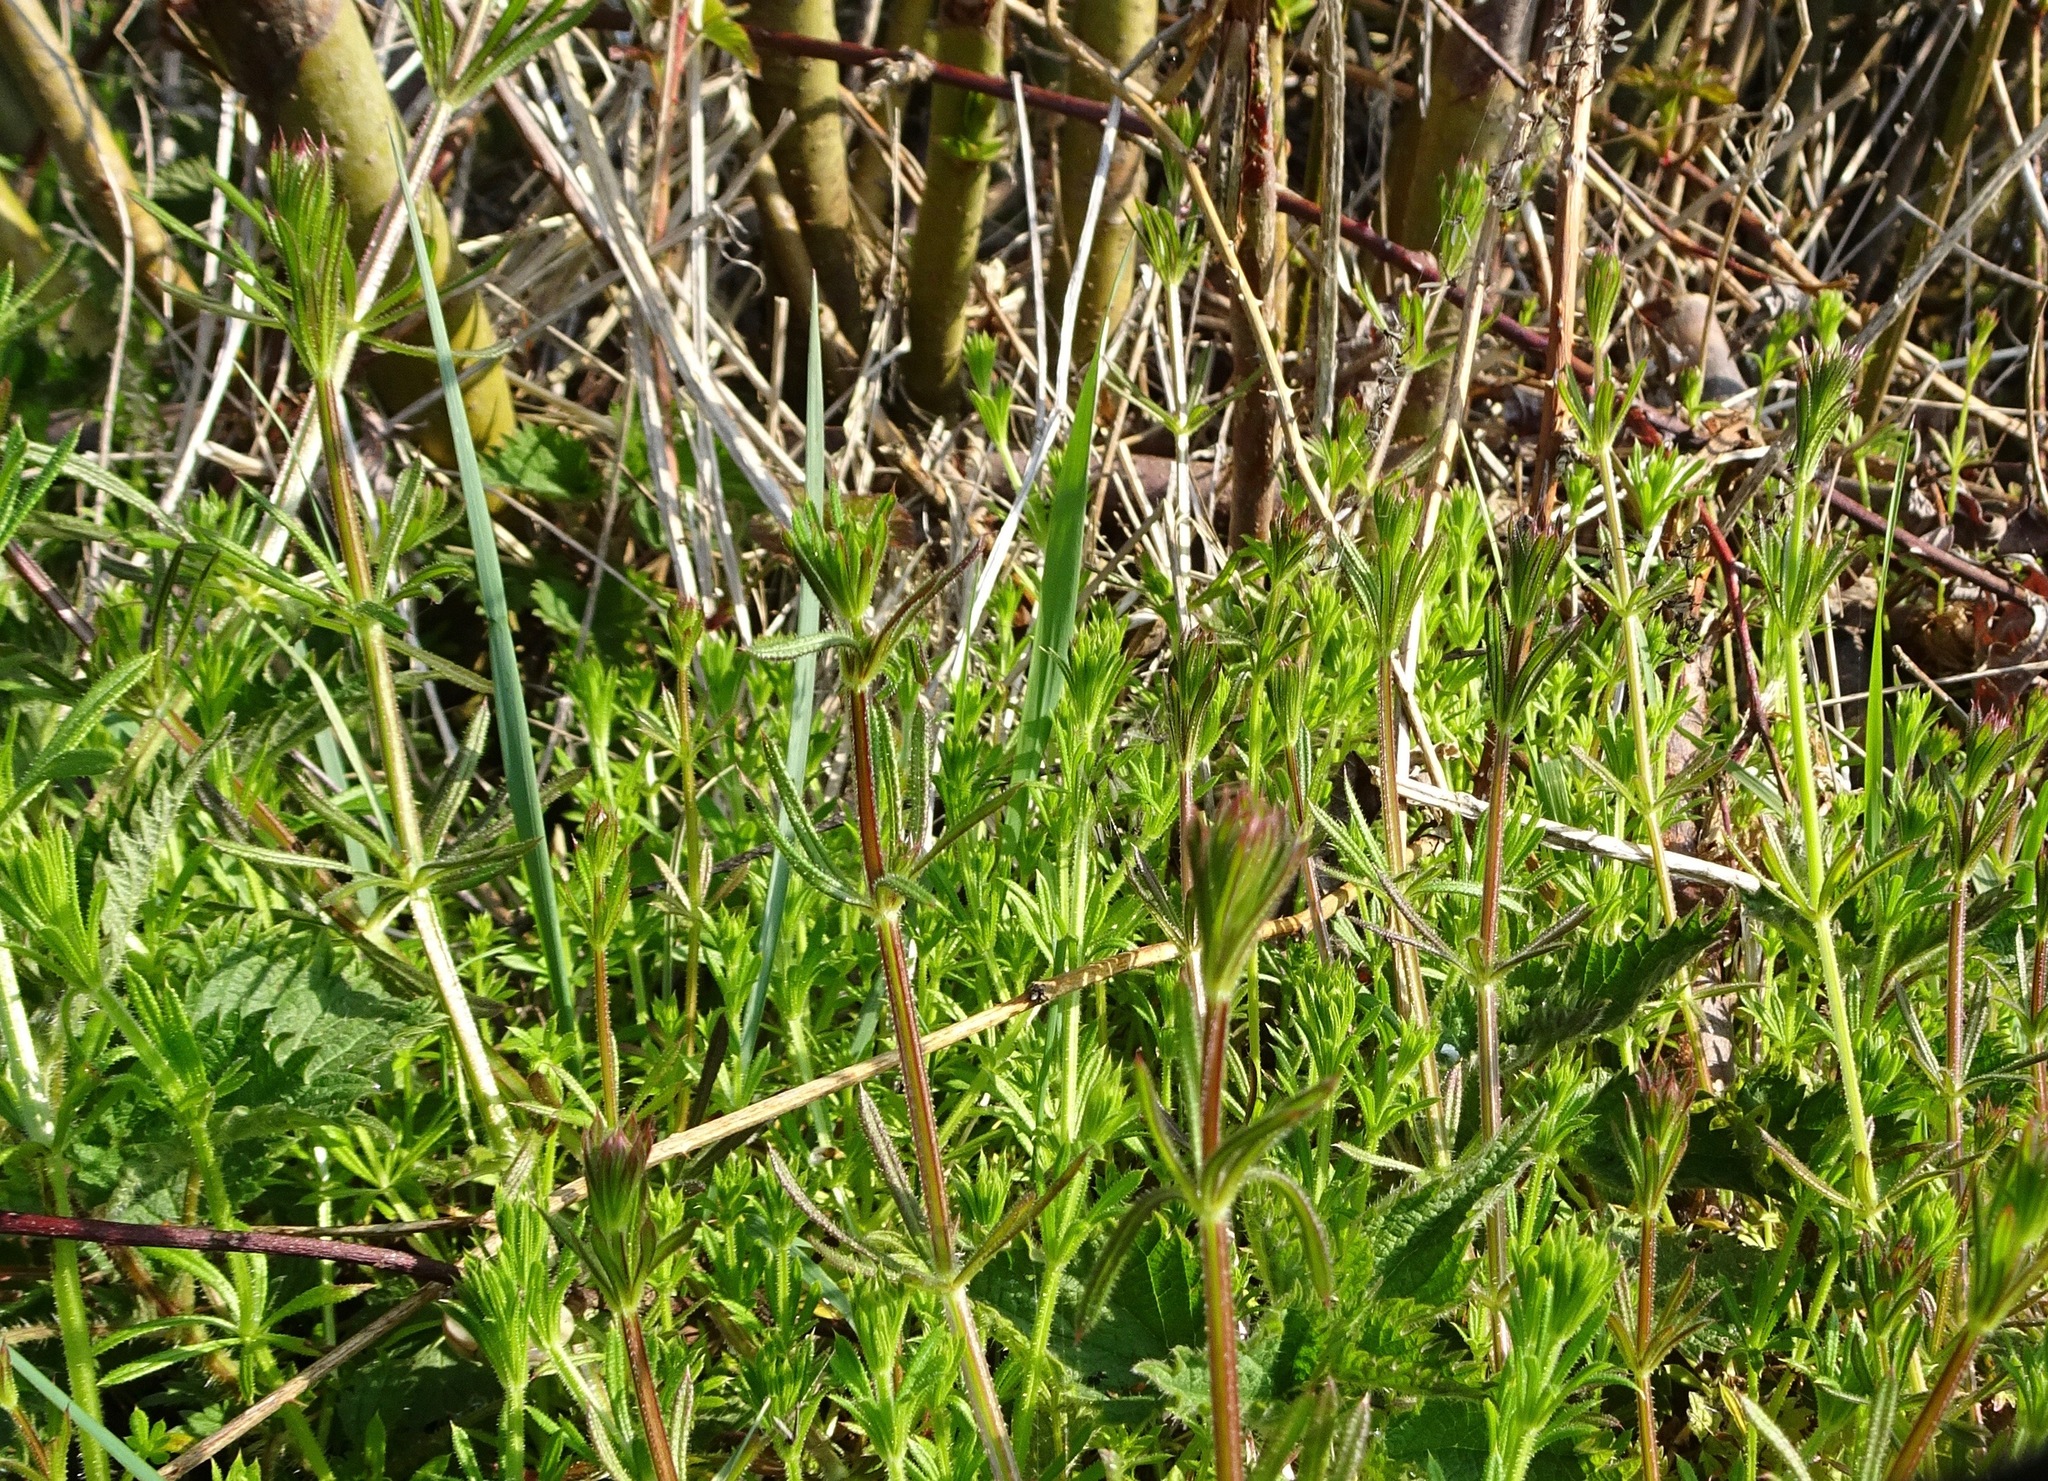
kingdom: Plantae
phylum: Tracheophyta
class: Magnoliopsida
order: Gentianales
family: Rubiaceae
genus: Galium
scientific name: Galium aparine
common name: Cleavers
